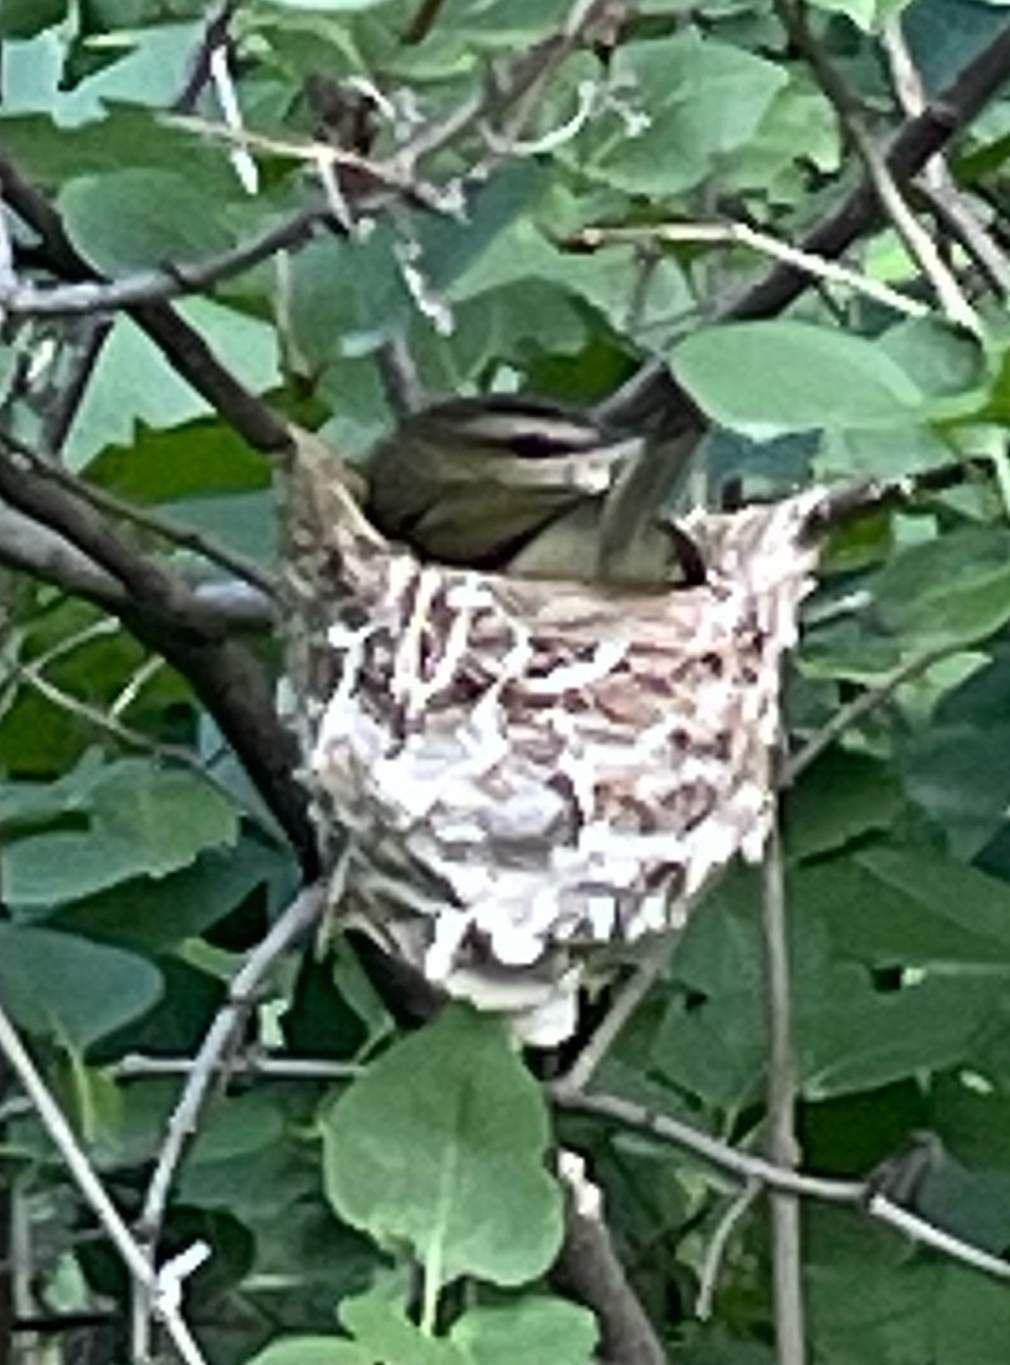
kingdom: Animalia
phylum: Chordata
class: Aves
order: Passeriformes
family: Vireonidae
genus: Vireo
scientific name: Vireo olivaceus
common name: Red-eyed vireo
